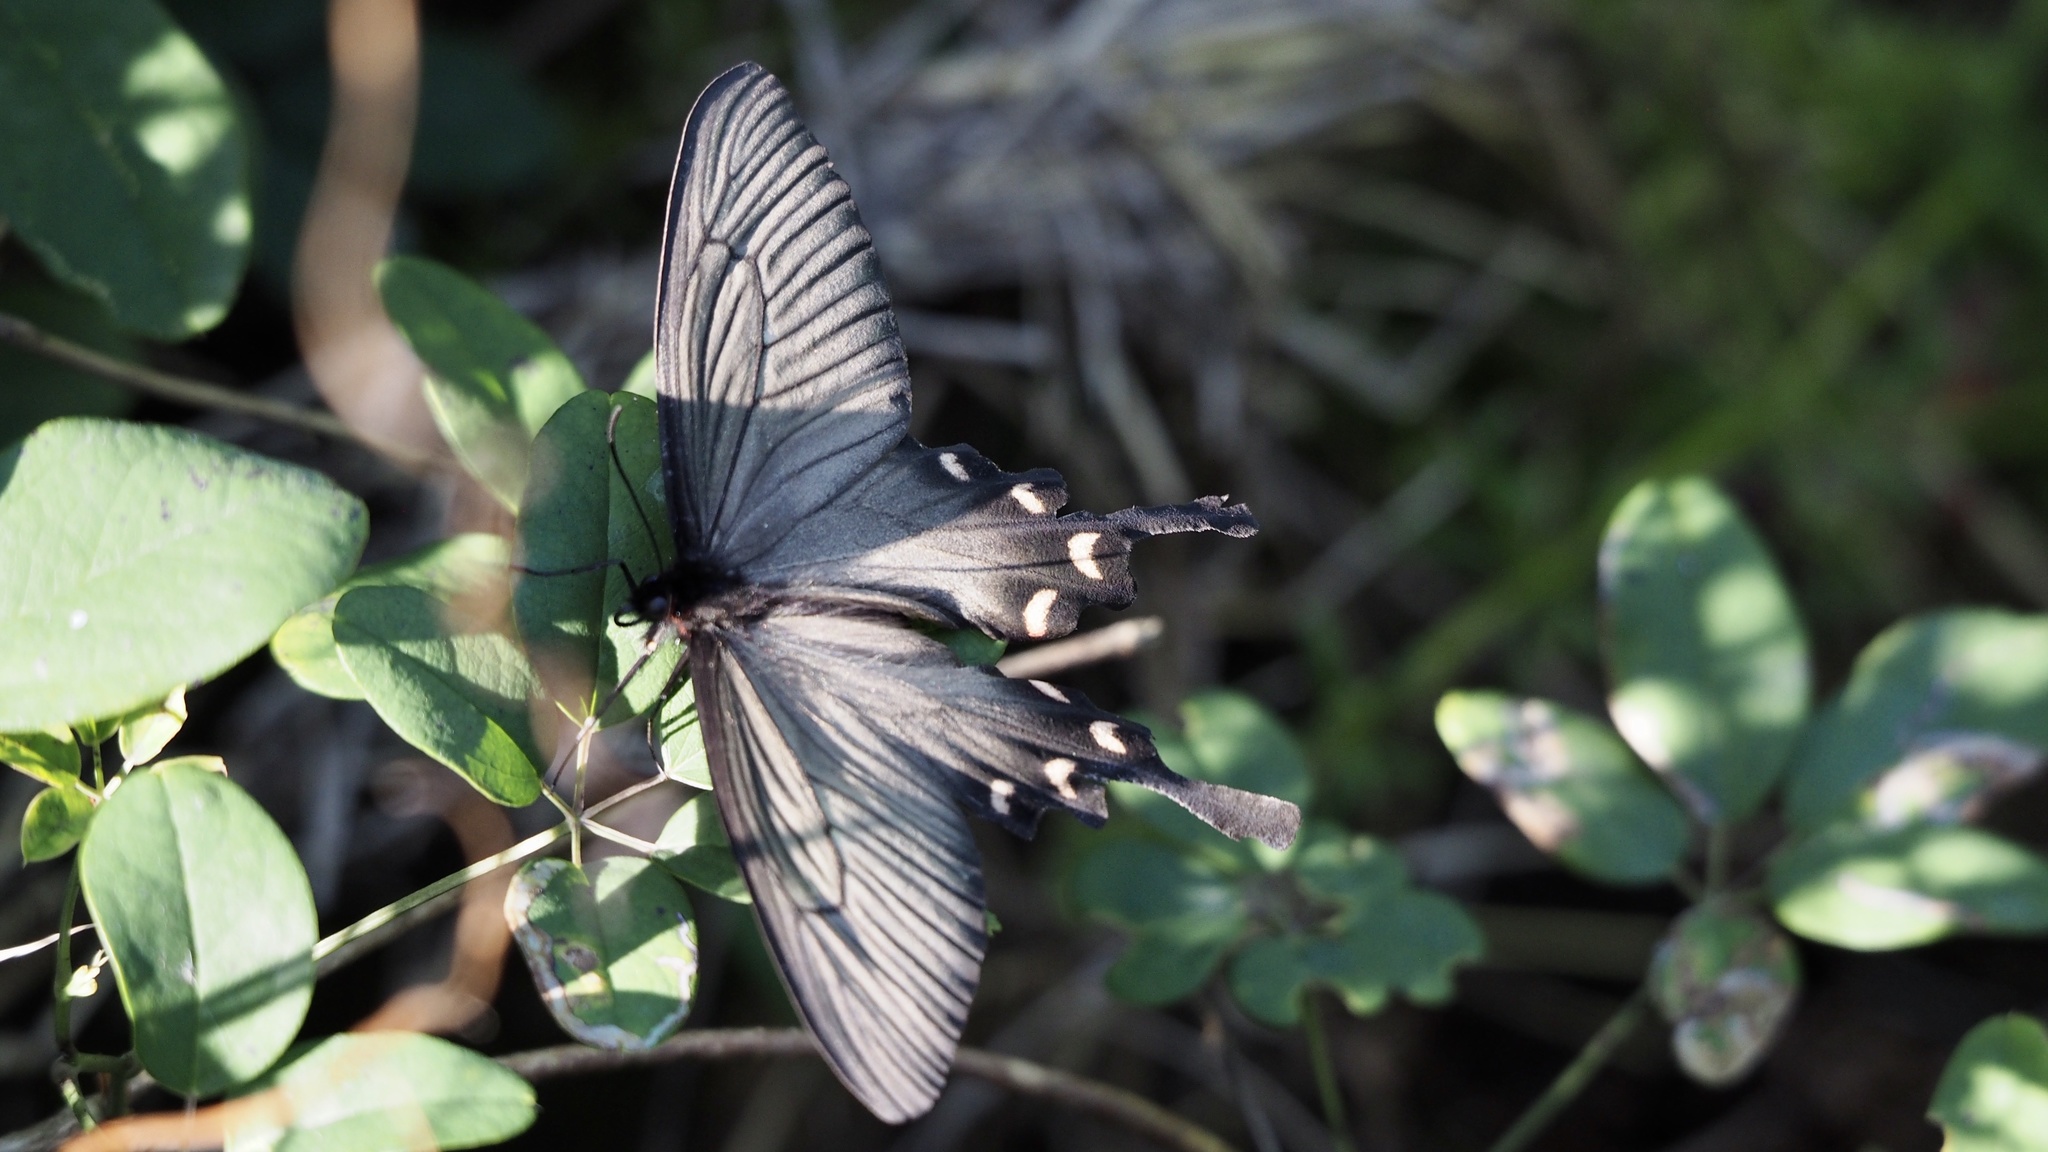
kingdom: Animalia
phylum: Arthropoda
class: Insecta
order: Lepidoptera
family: Papilionidae
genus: Byasa
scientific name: Byasa alcinous
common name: Chinese windmill
